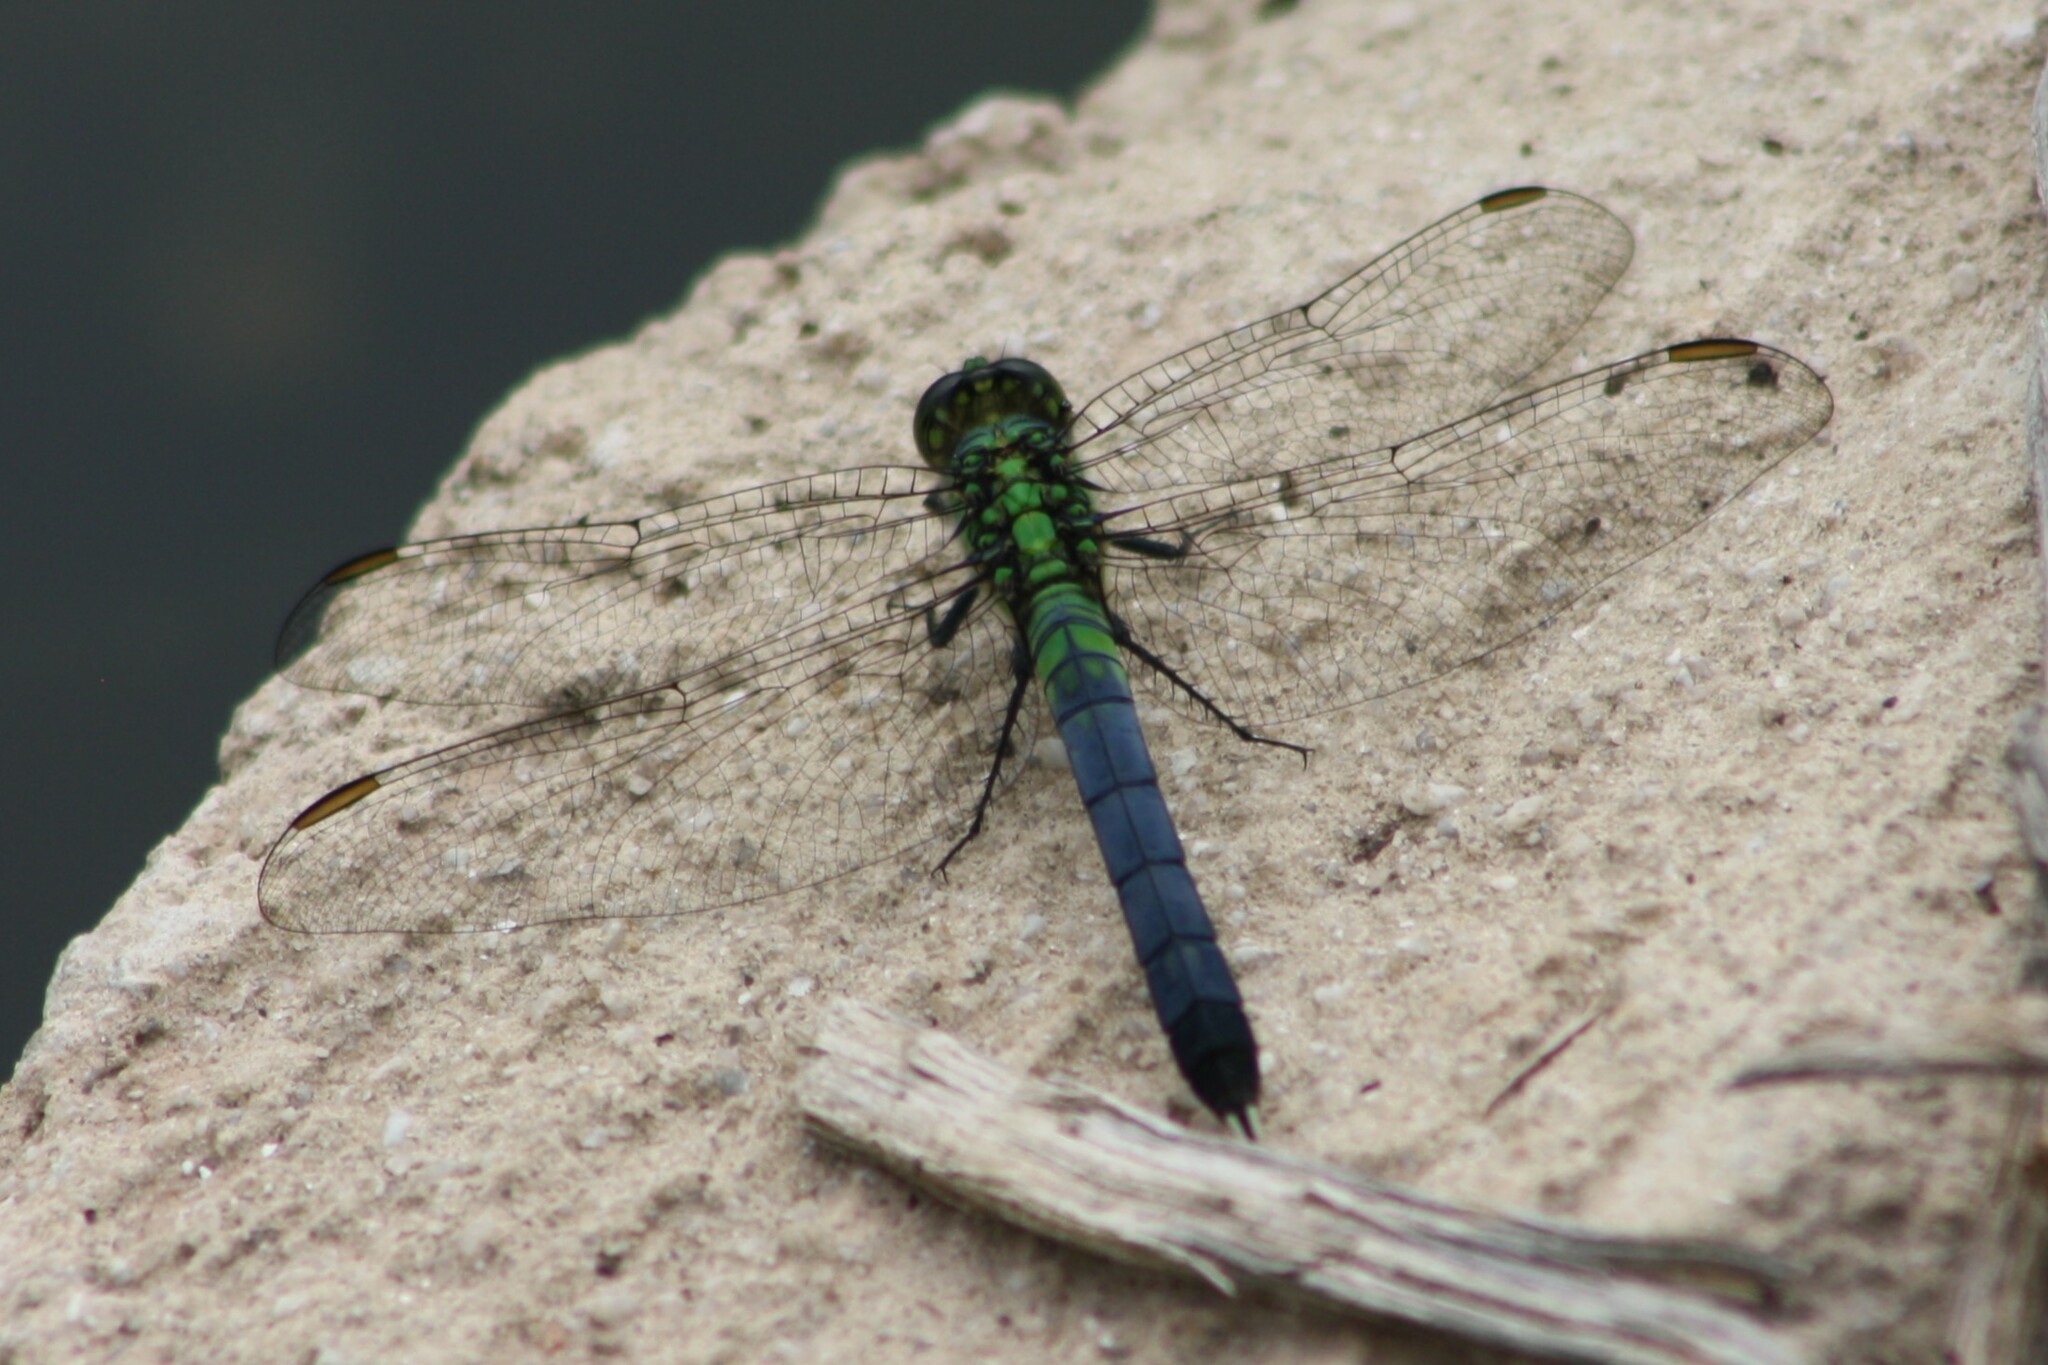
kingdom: Animalia
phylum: Arthropoda
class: Insecta
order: Odonata
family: Libellulidae
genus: Erythemis
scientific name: Erythemis simplicicollis
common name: Eastern pondhawk
